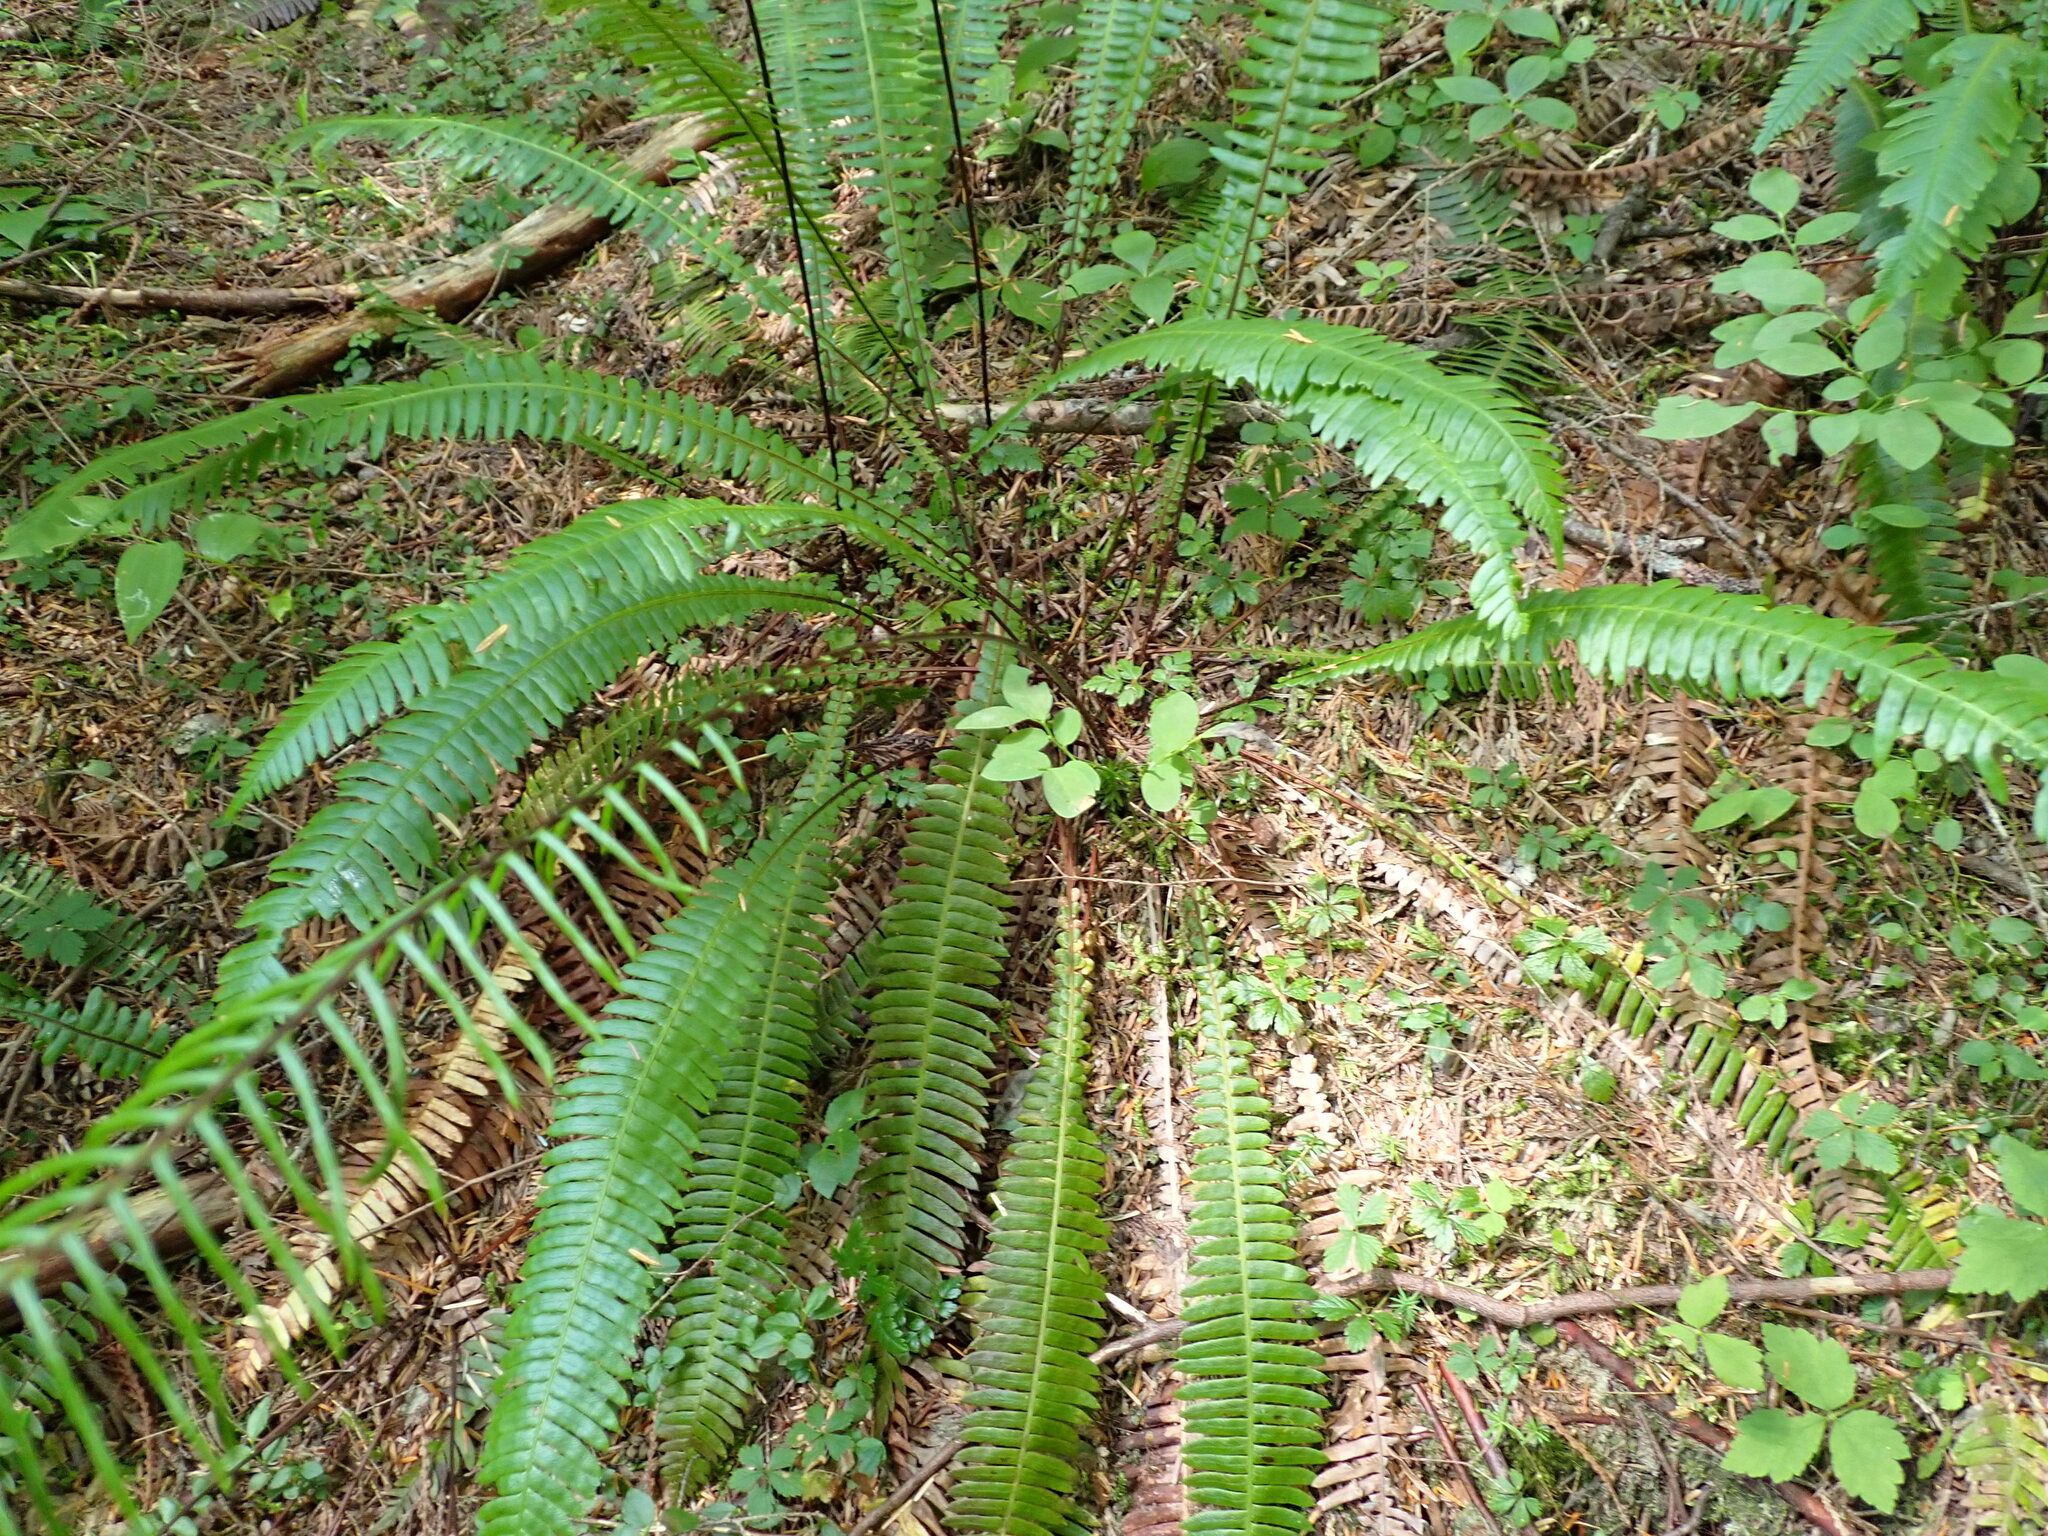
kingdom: Plantae
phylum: Tracheophyta
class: Polypodiopsida
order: Polypodiales
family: Blechnaceae
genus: Struthiopteris
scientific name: Struthiopteris spicant
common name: Deer fern
